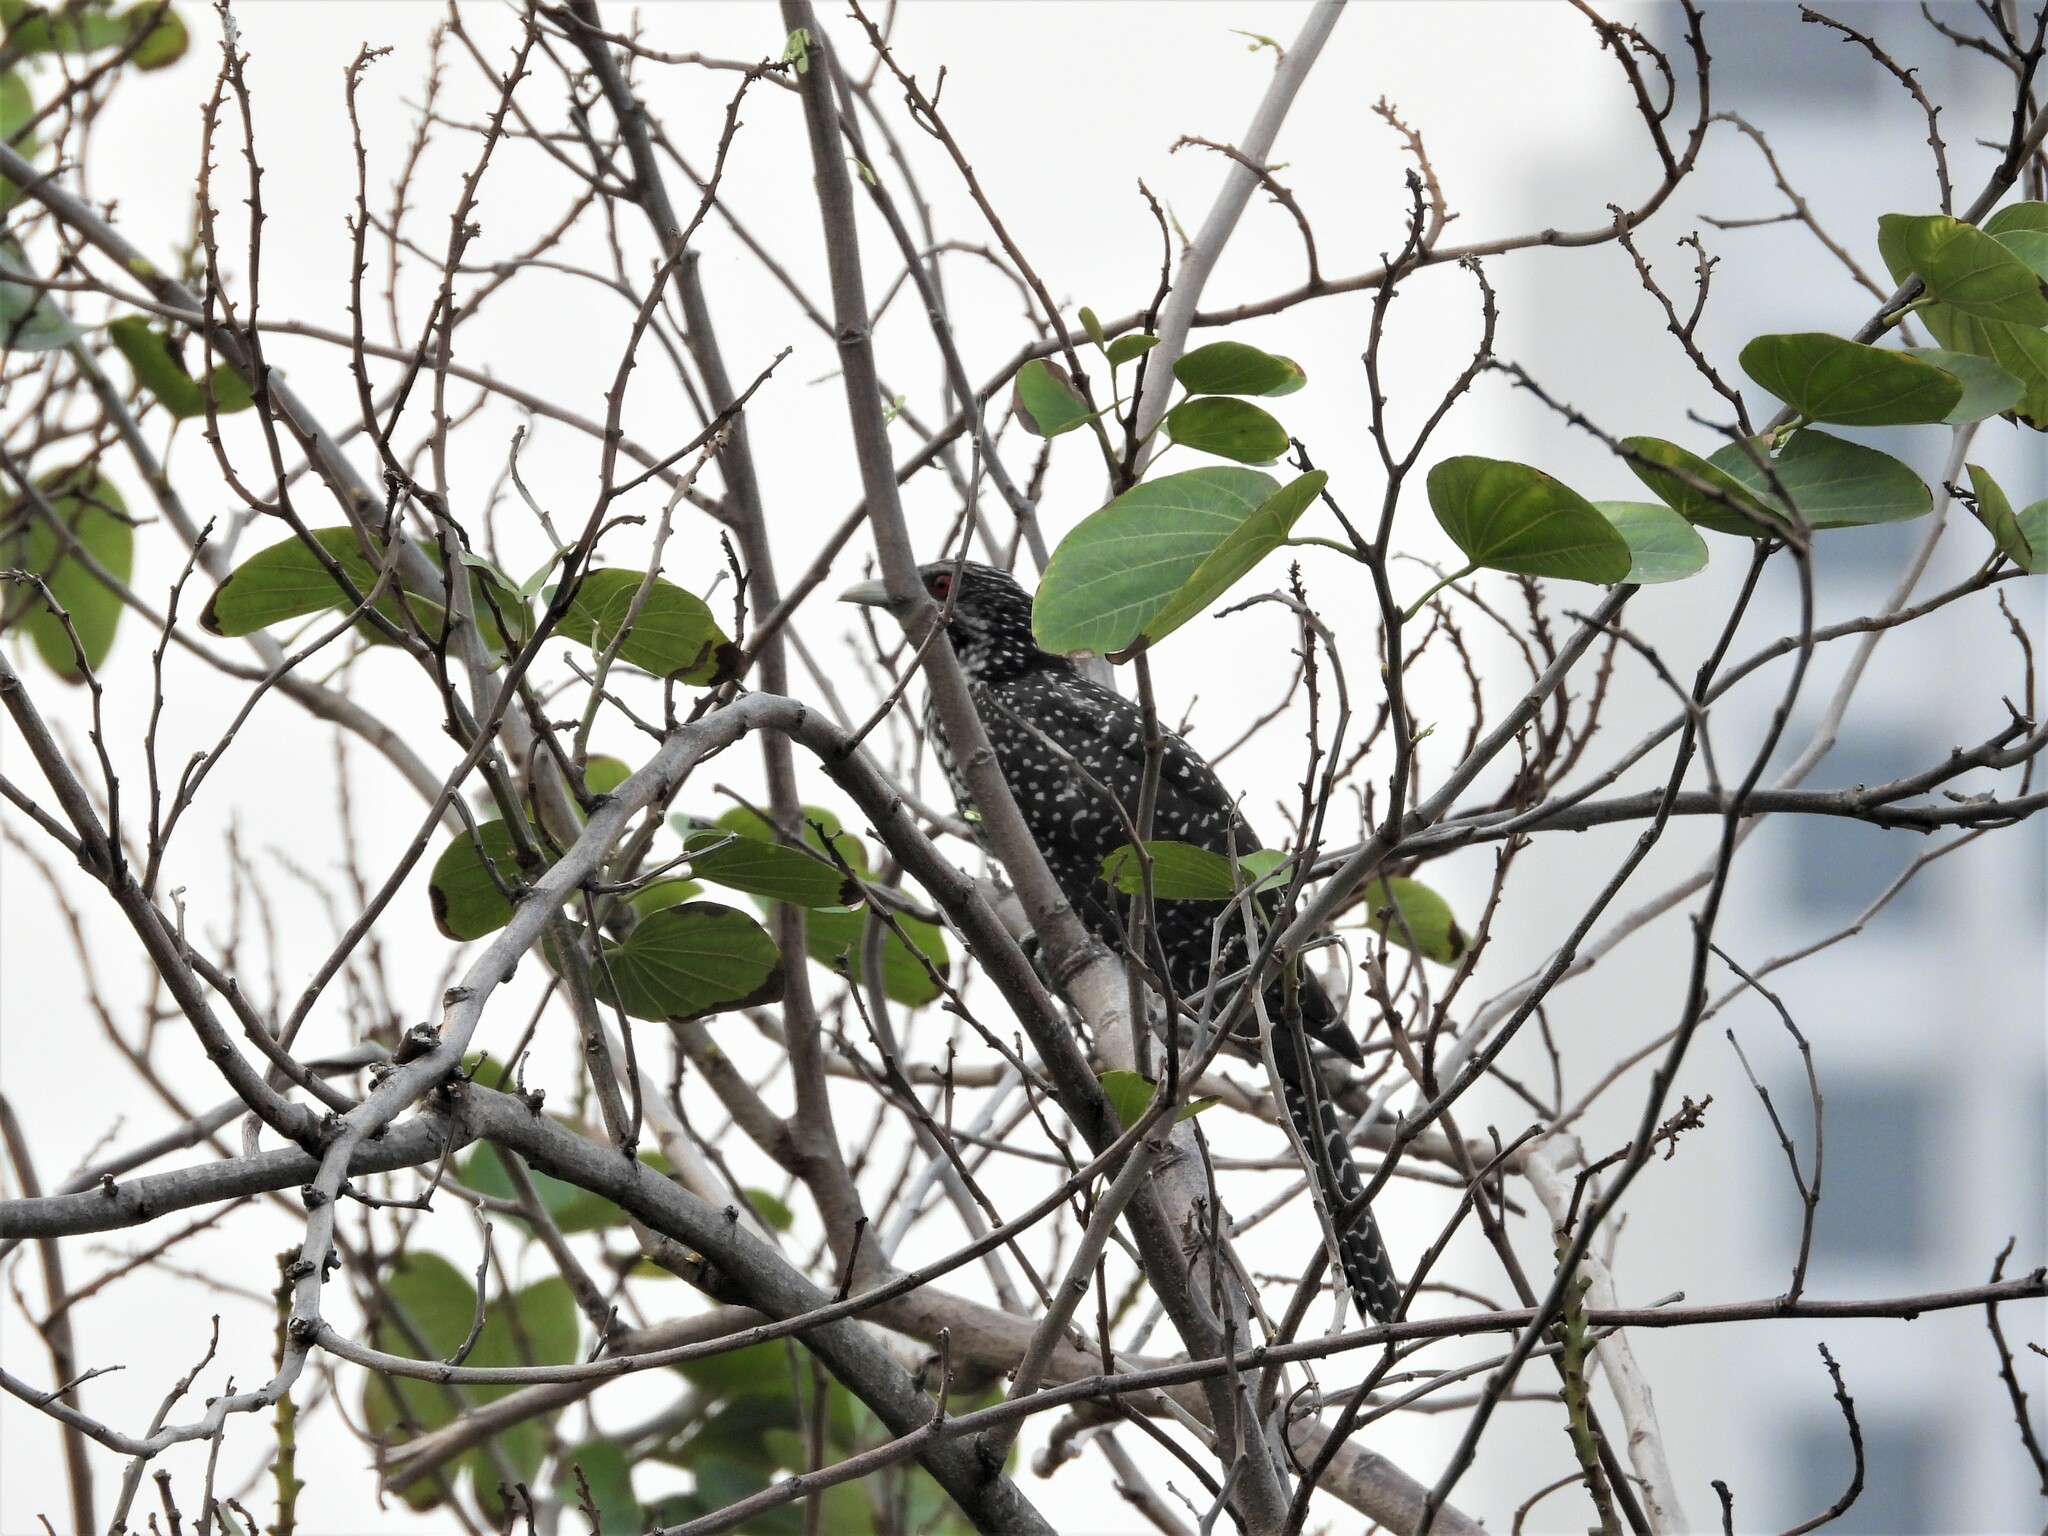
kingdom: Animalia
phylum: Chordata
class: Aves
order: Cuculiformes
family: Cuculidae
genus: Eudynamys
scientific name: Eudynamys scolopaceus
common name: Asian koel
